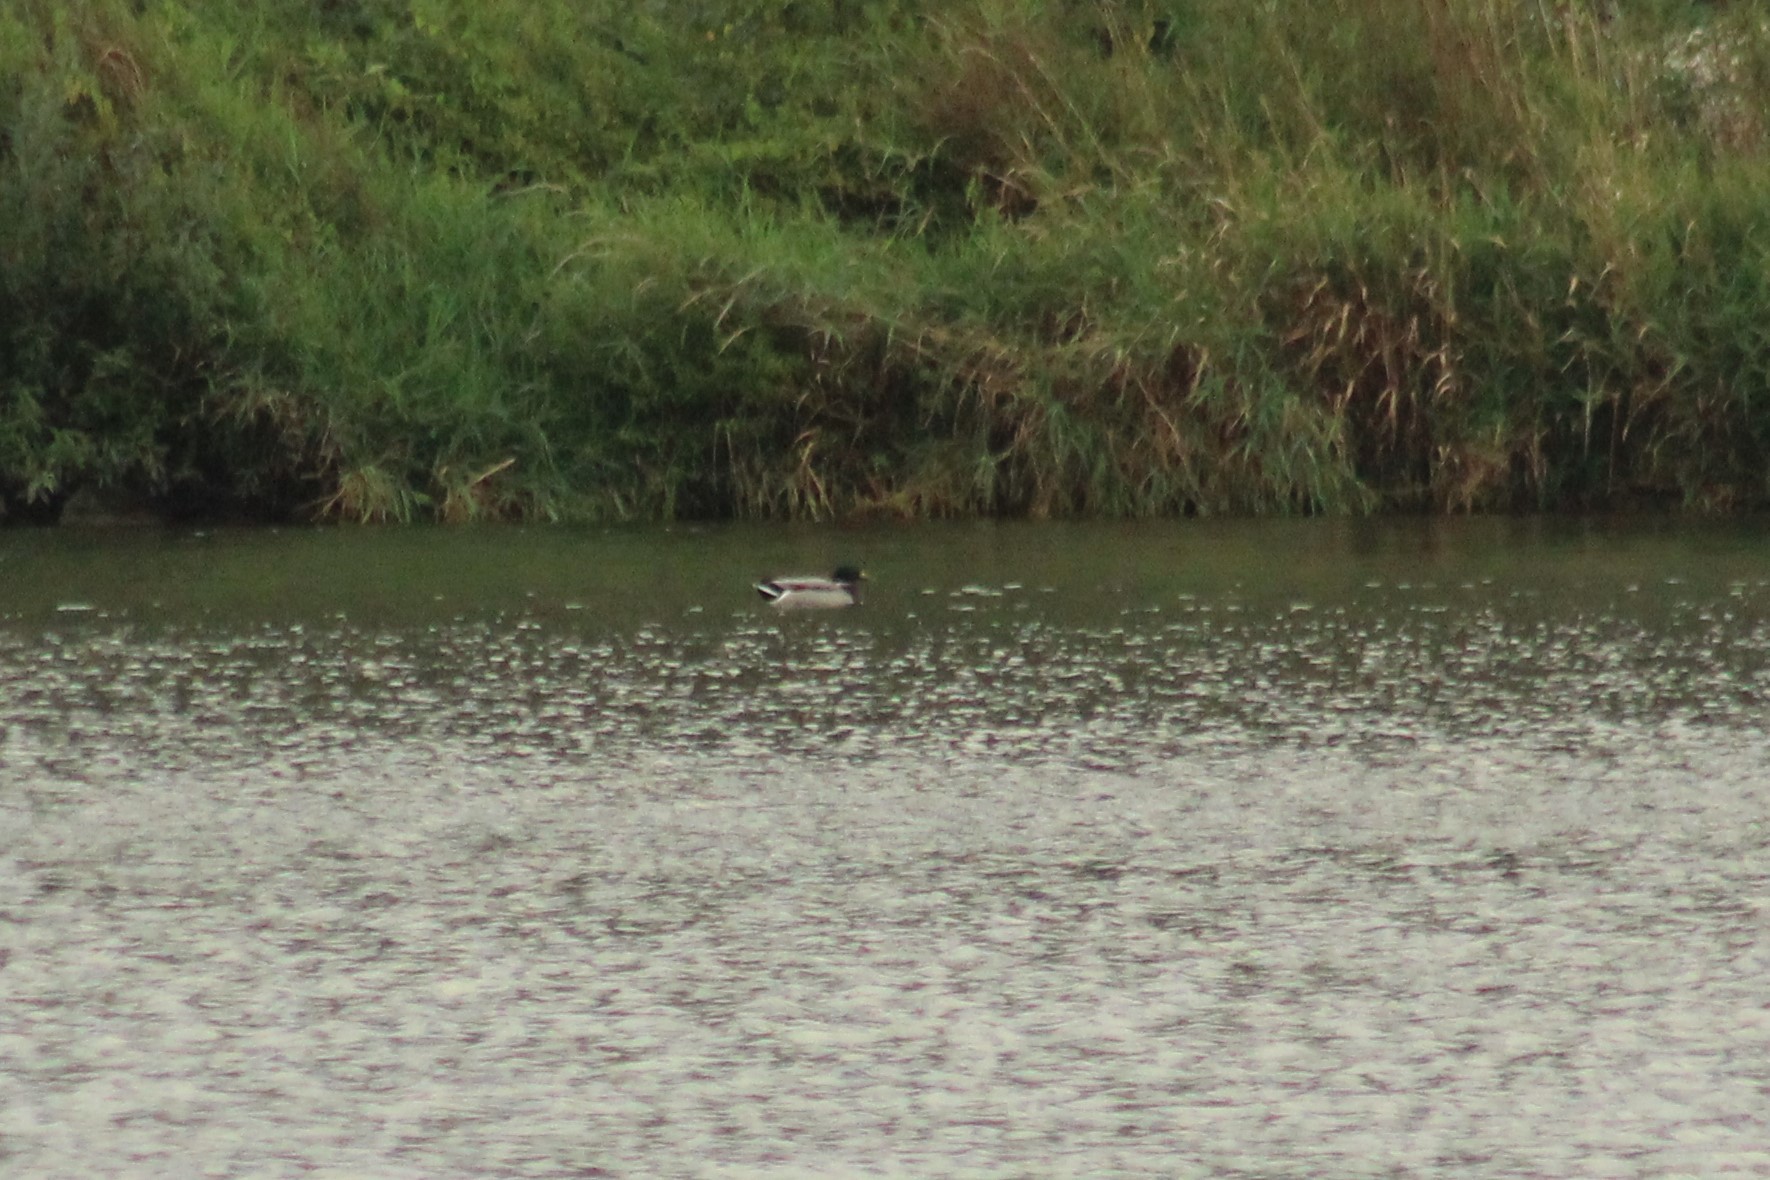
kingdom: Animalia
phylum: Chordata
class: Aves
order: Anseriformes
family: Anatidae
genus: Anas
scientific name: Anas platyrhynchos
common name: Mallard
